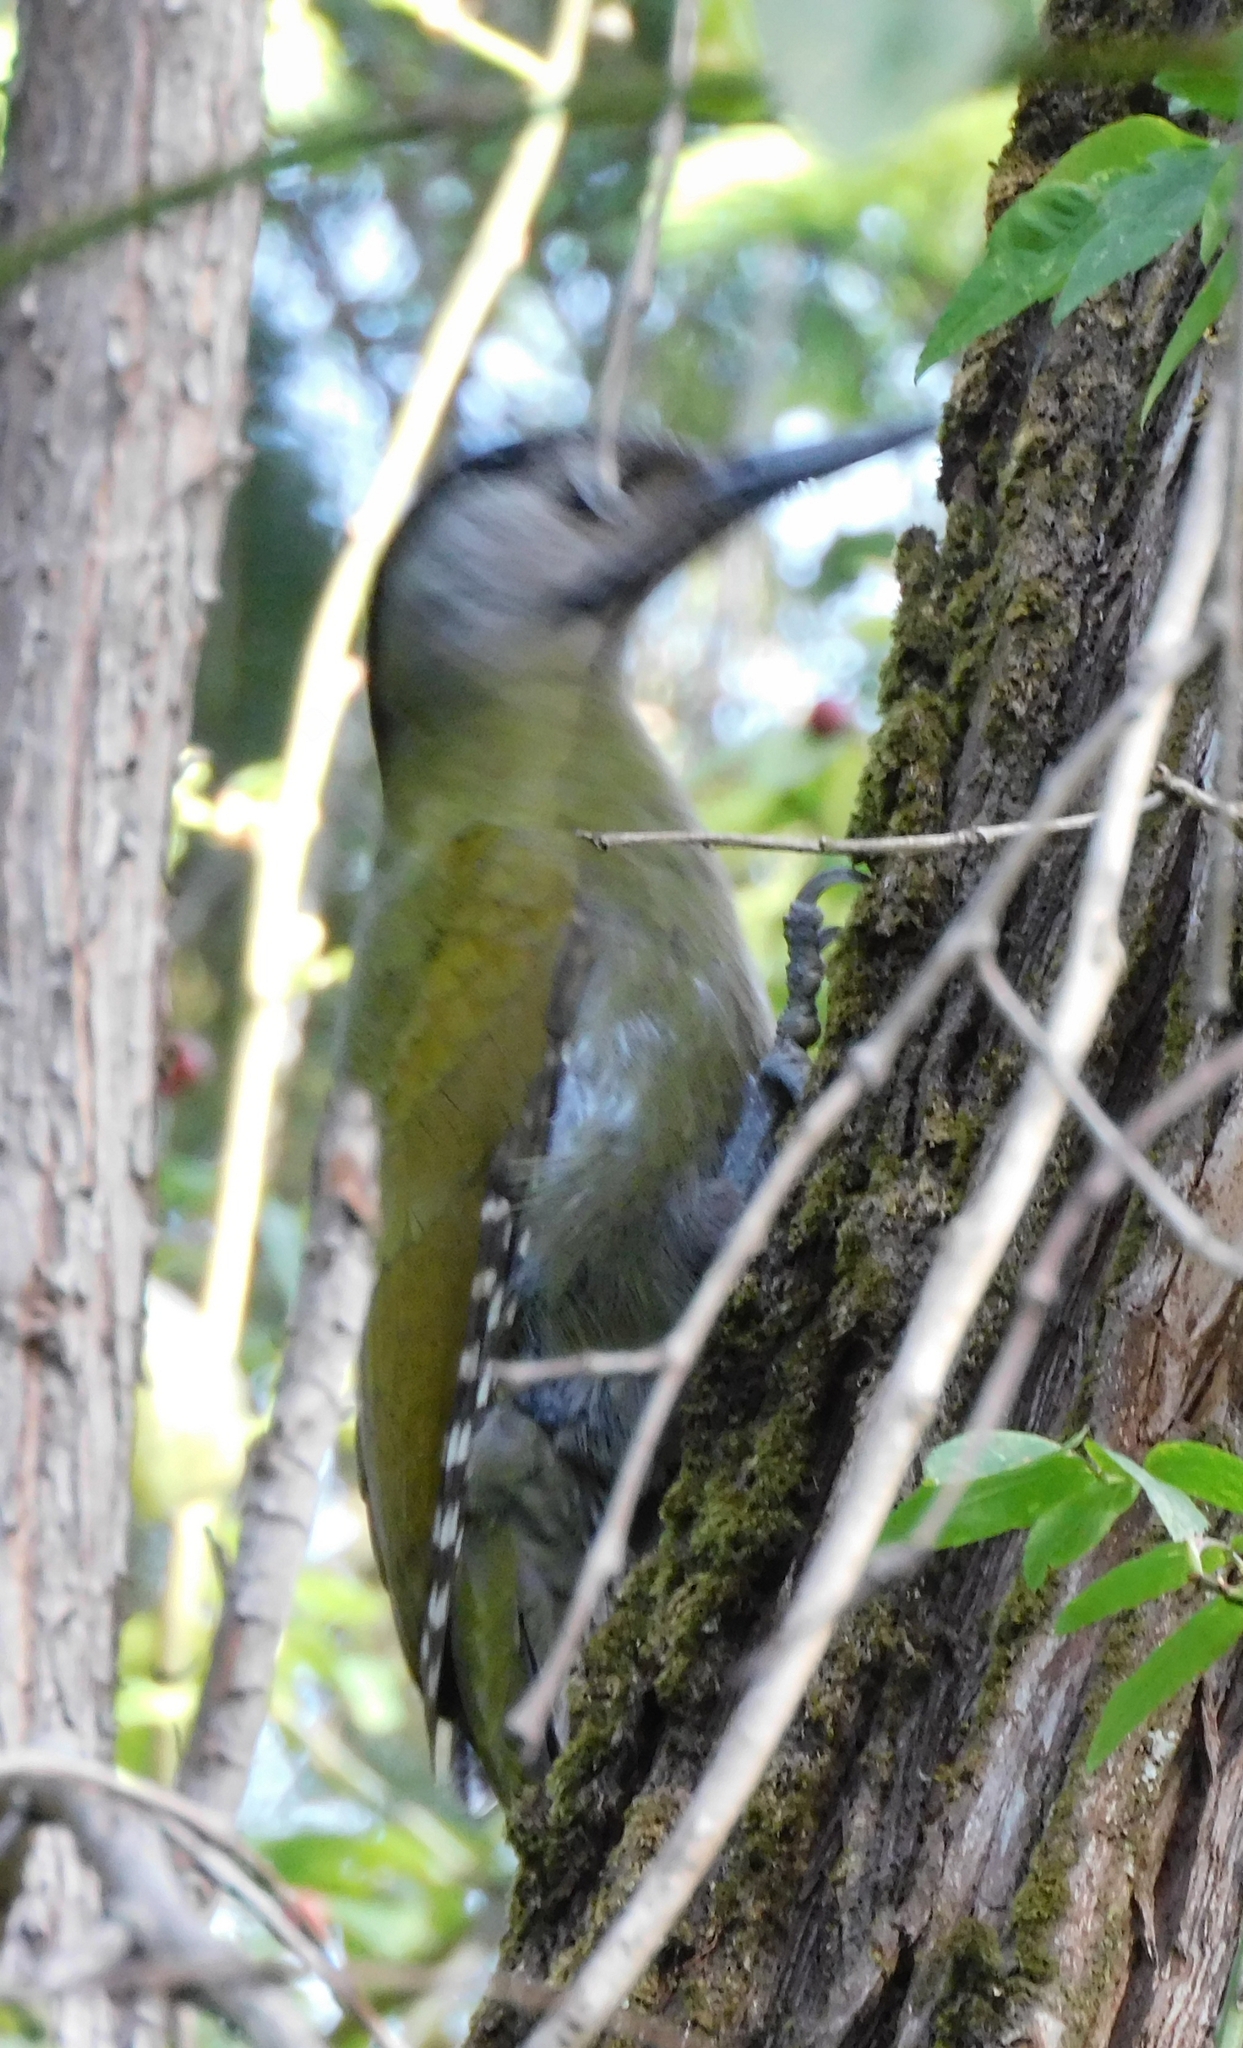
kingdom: Animalia
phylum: Chordata
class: Aves
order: Piciformes
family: Picidae
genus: Picus
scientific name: Picus canus
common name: Grey-headed woodpecker
